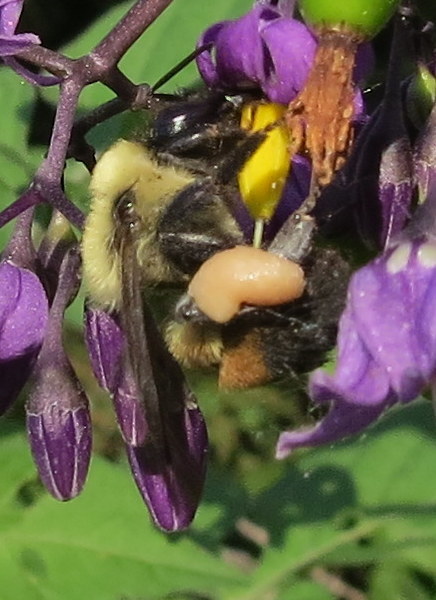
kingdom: Animalia
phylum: Arthropoda
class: Insecta
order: Hymenoptera
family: Apidae
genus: Bombus
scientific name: Bombus griseocollis
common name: Brown-belted bumble bee
